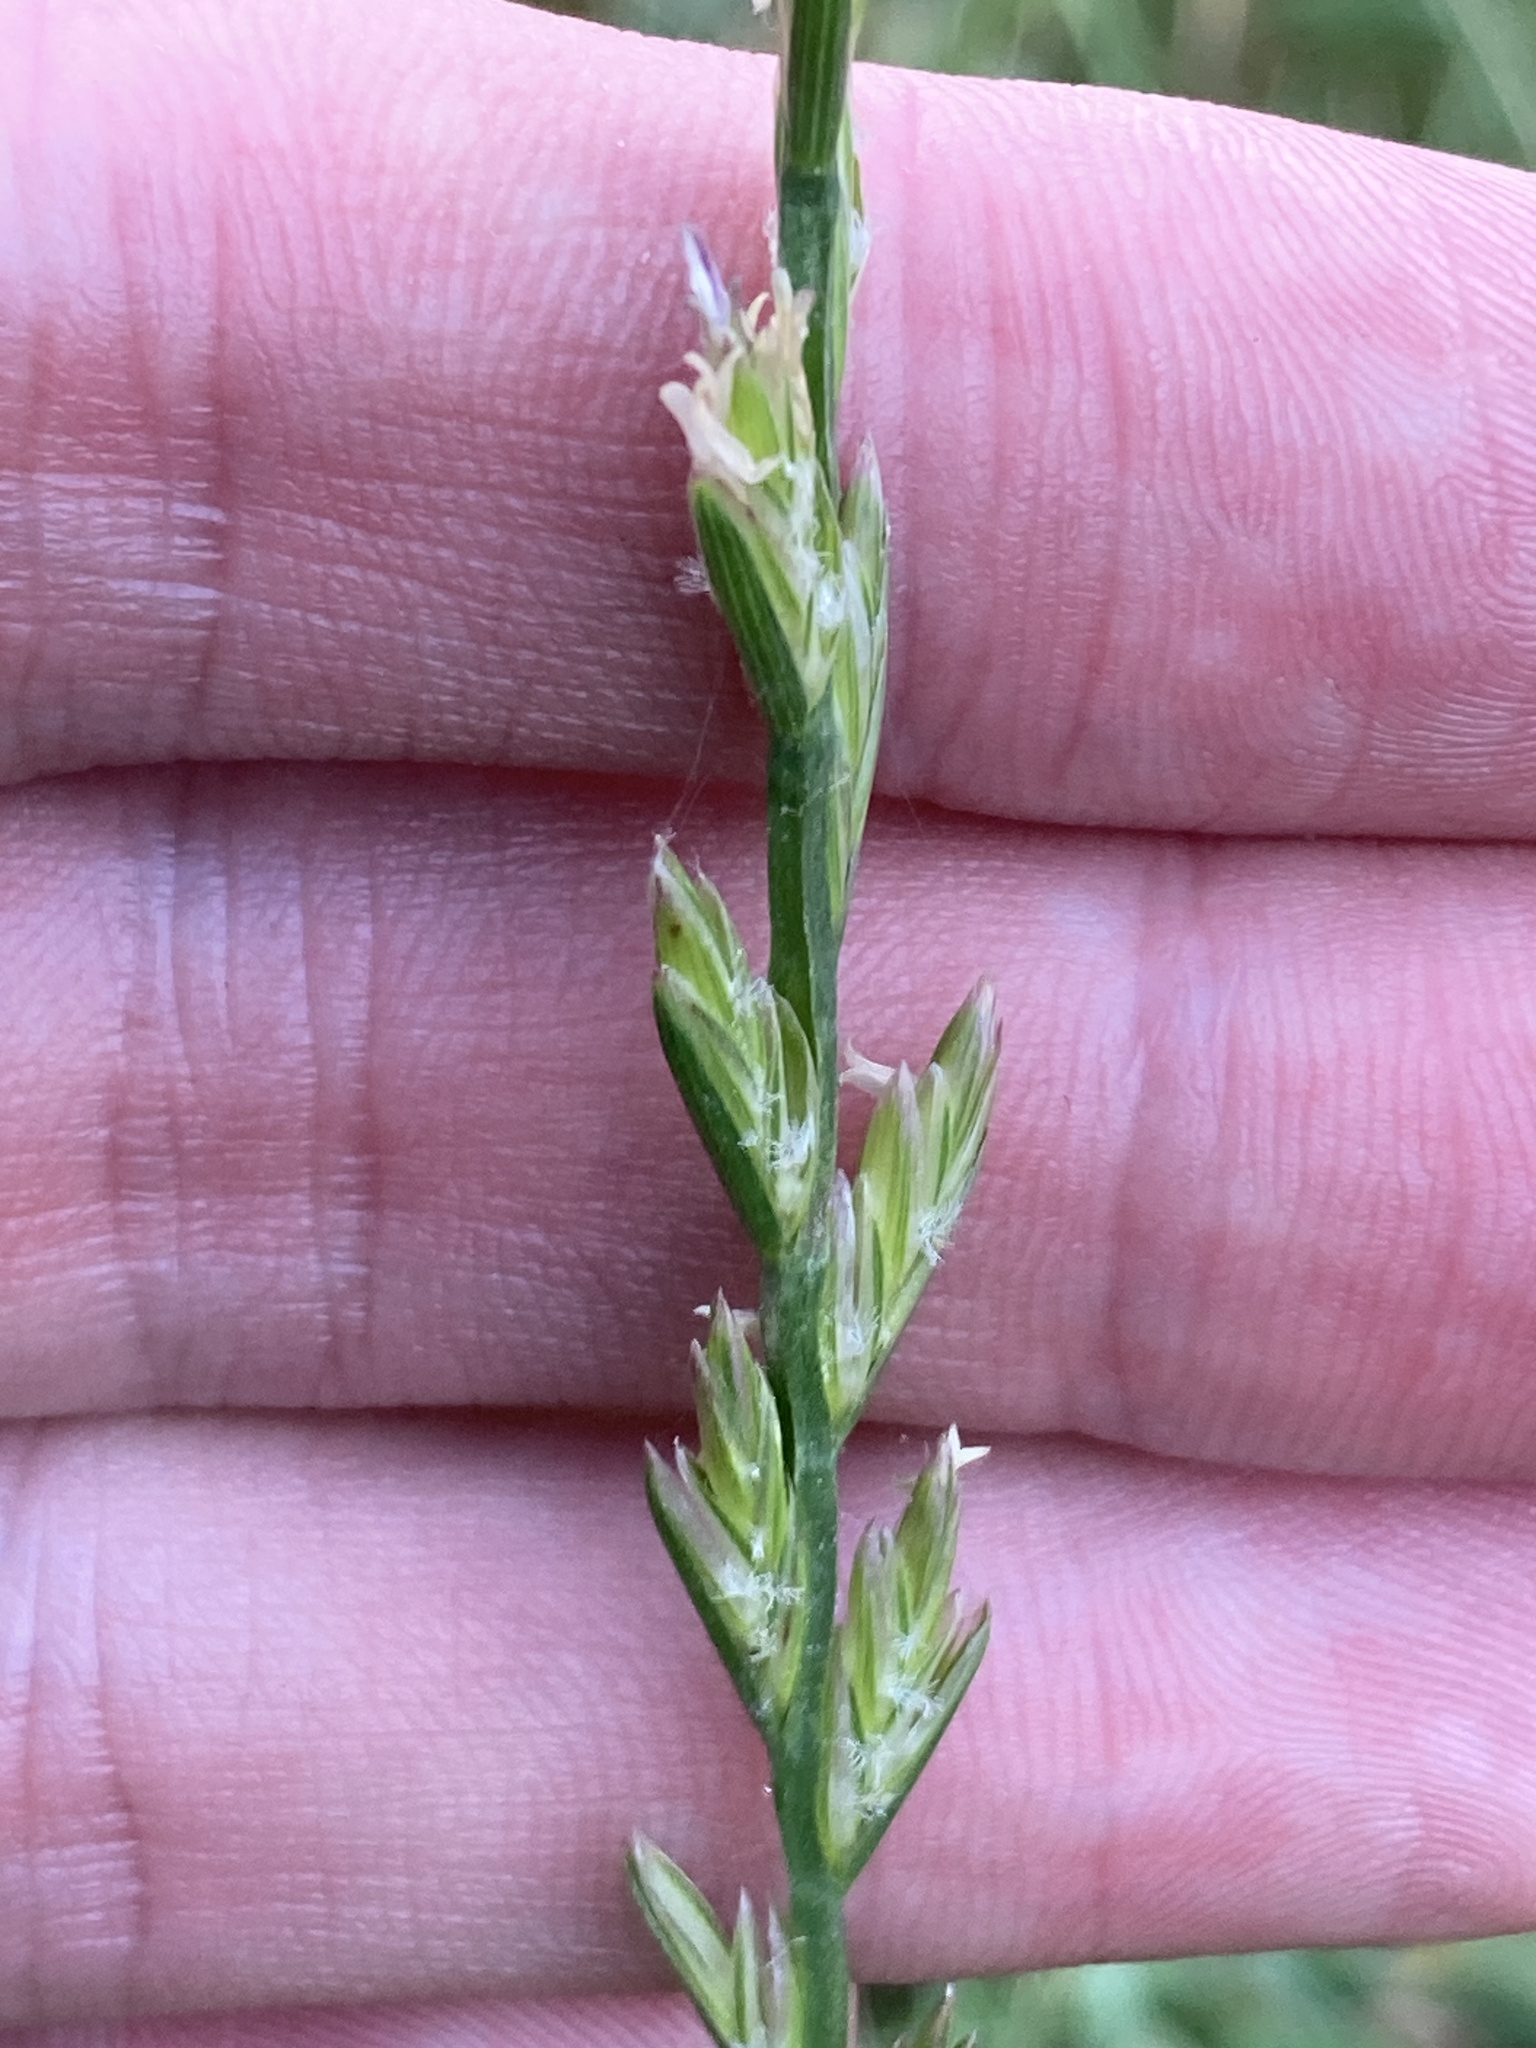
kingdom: Plantae
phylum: Tracheophyta
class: Liliopsida
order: Poales
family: Poaceae
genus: Lolium
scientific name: Lolium perenne
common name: Perennial ryegrass
